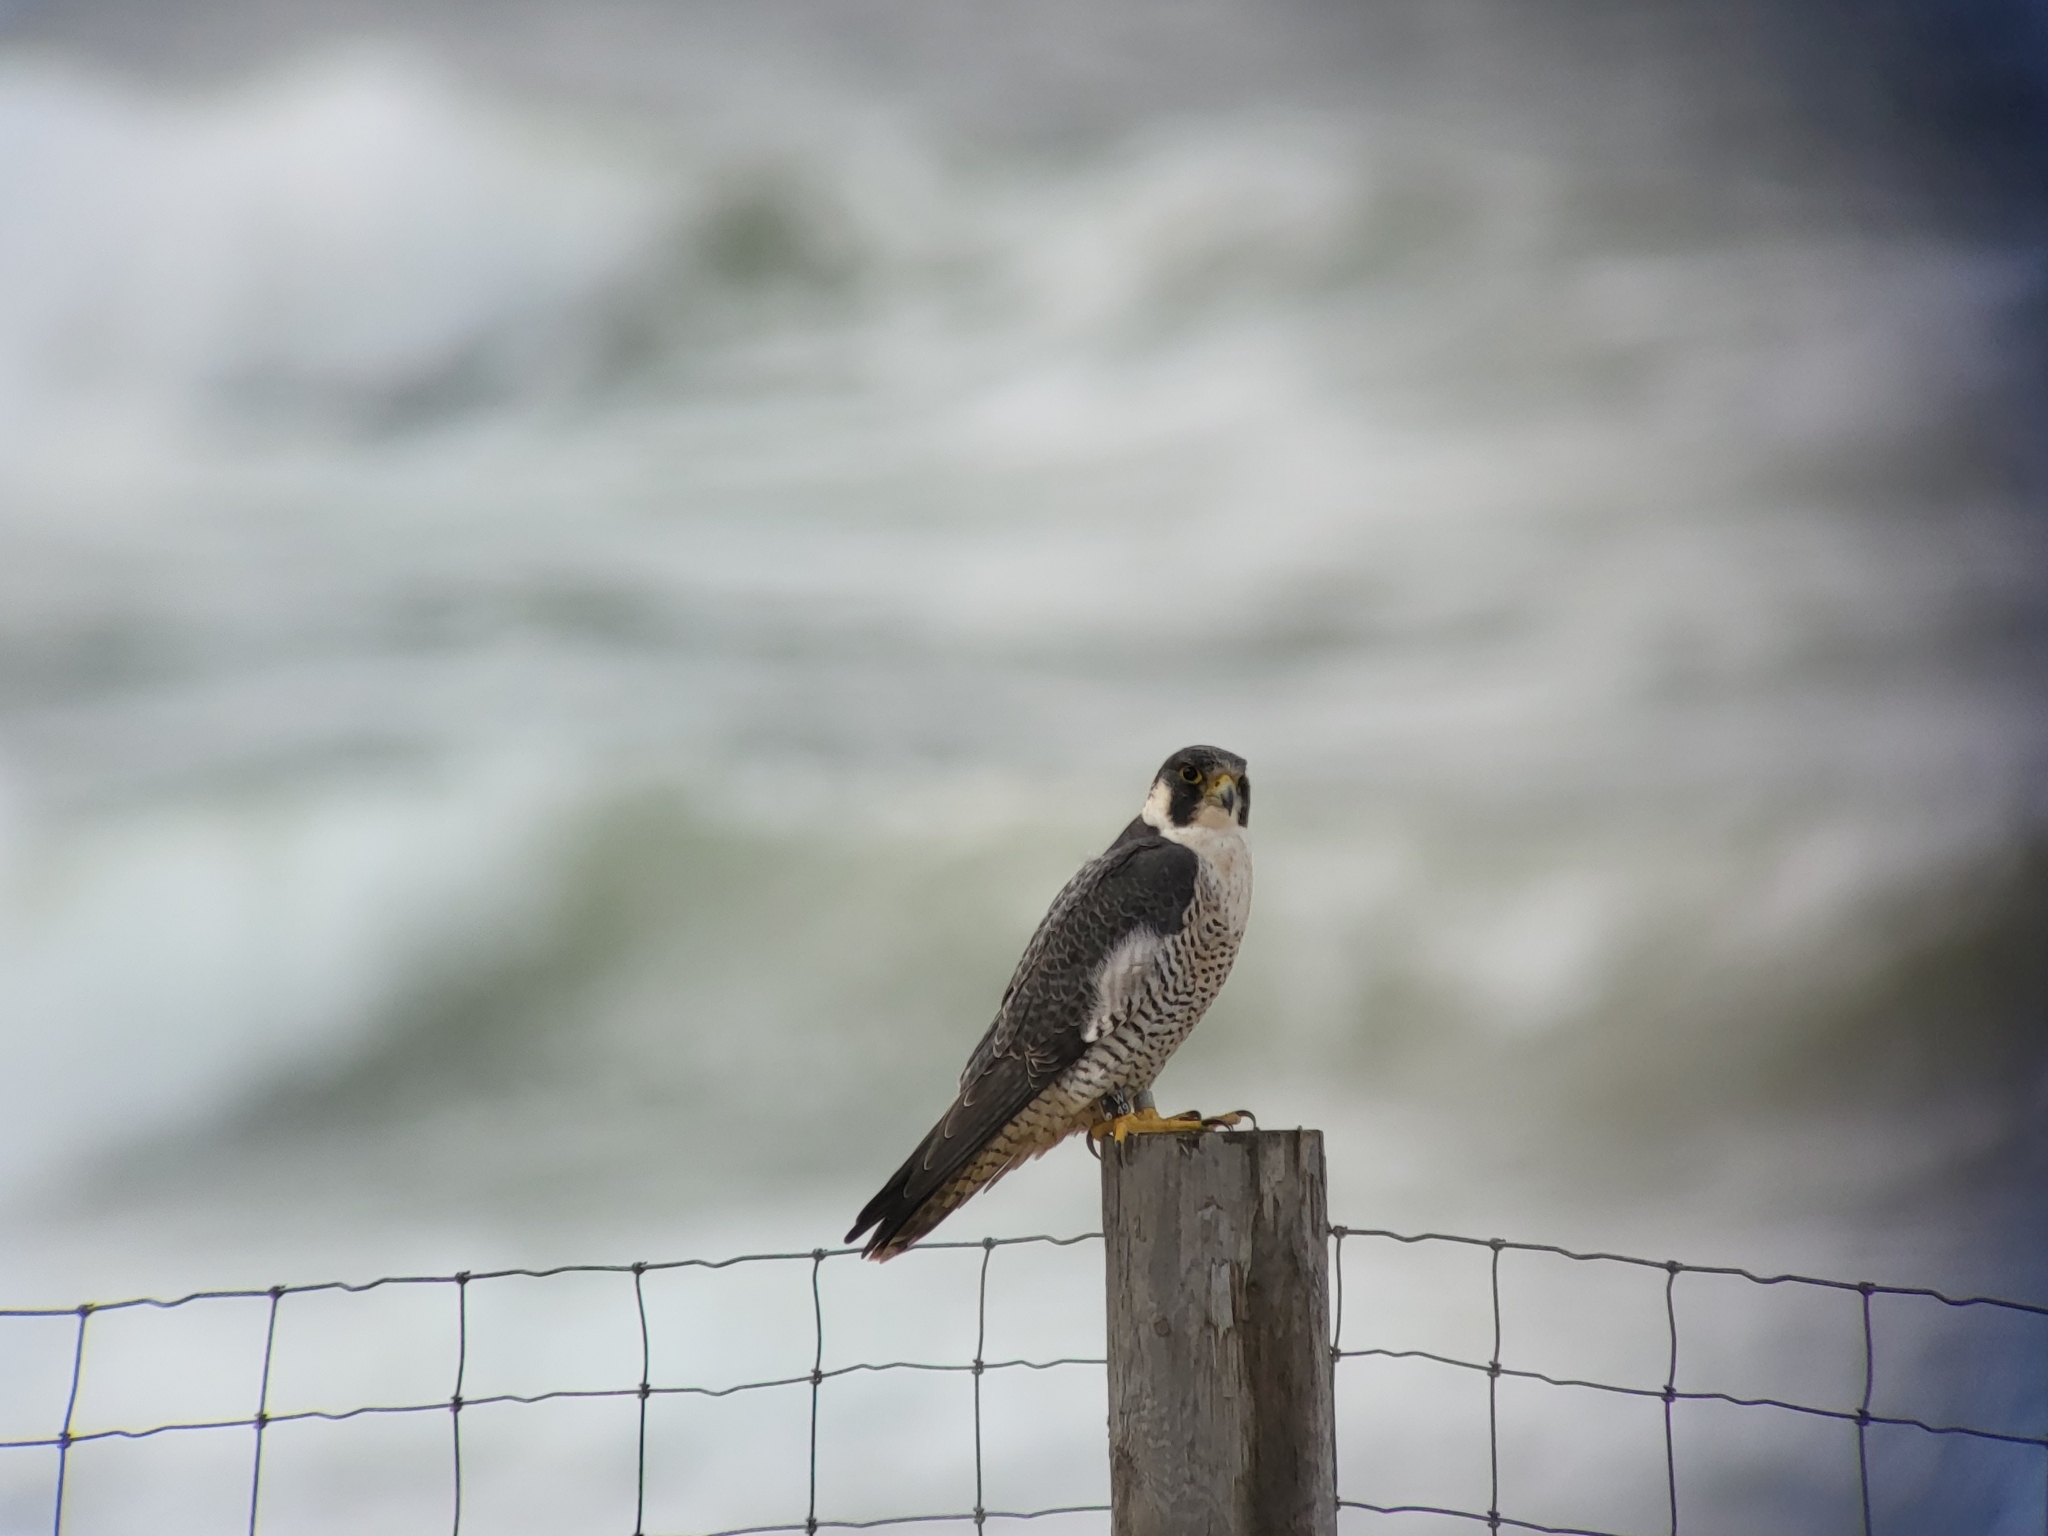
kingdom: Animalia
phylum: Chordata
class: Aves
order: Falconiformes
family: Falconidae
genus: Falco
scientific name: Falco peregrinus
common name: Peregrine falcon
